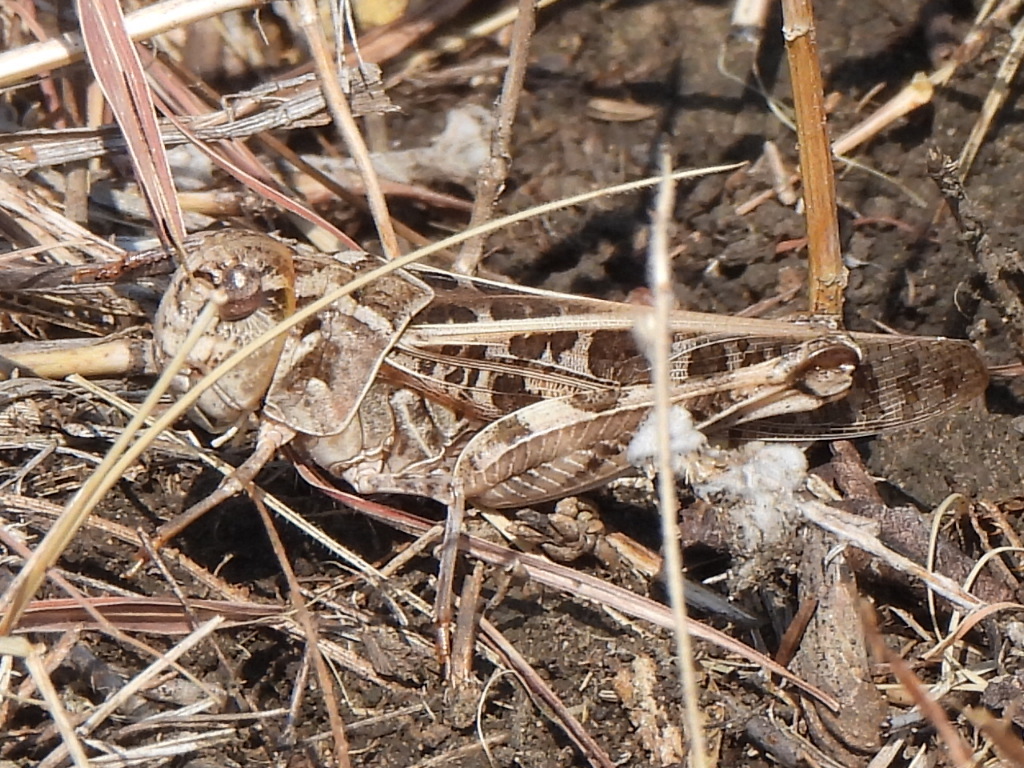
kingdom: Animalia
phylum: Arthropoda
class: Insecta
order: Orthoptera
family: Acrididae
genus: Hippiscus
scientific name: Hippiscus ocelote
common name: Wrinkled grasshopper
